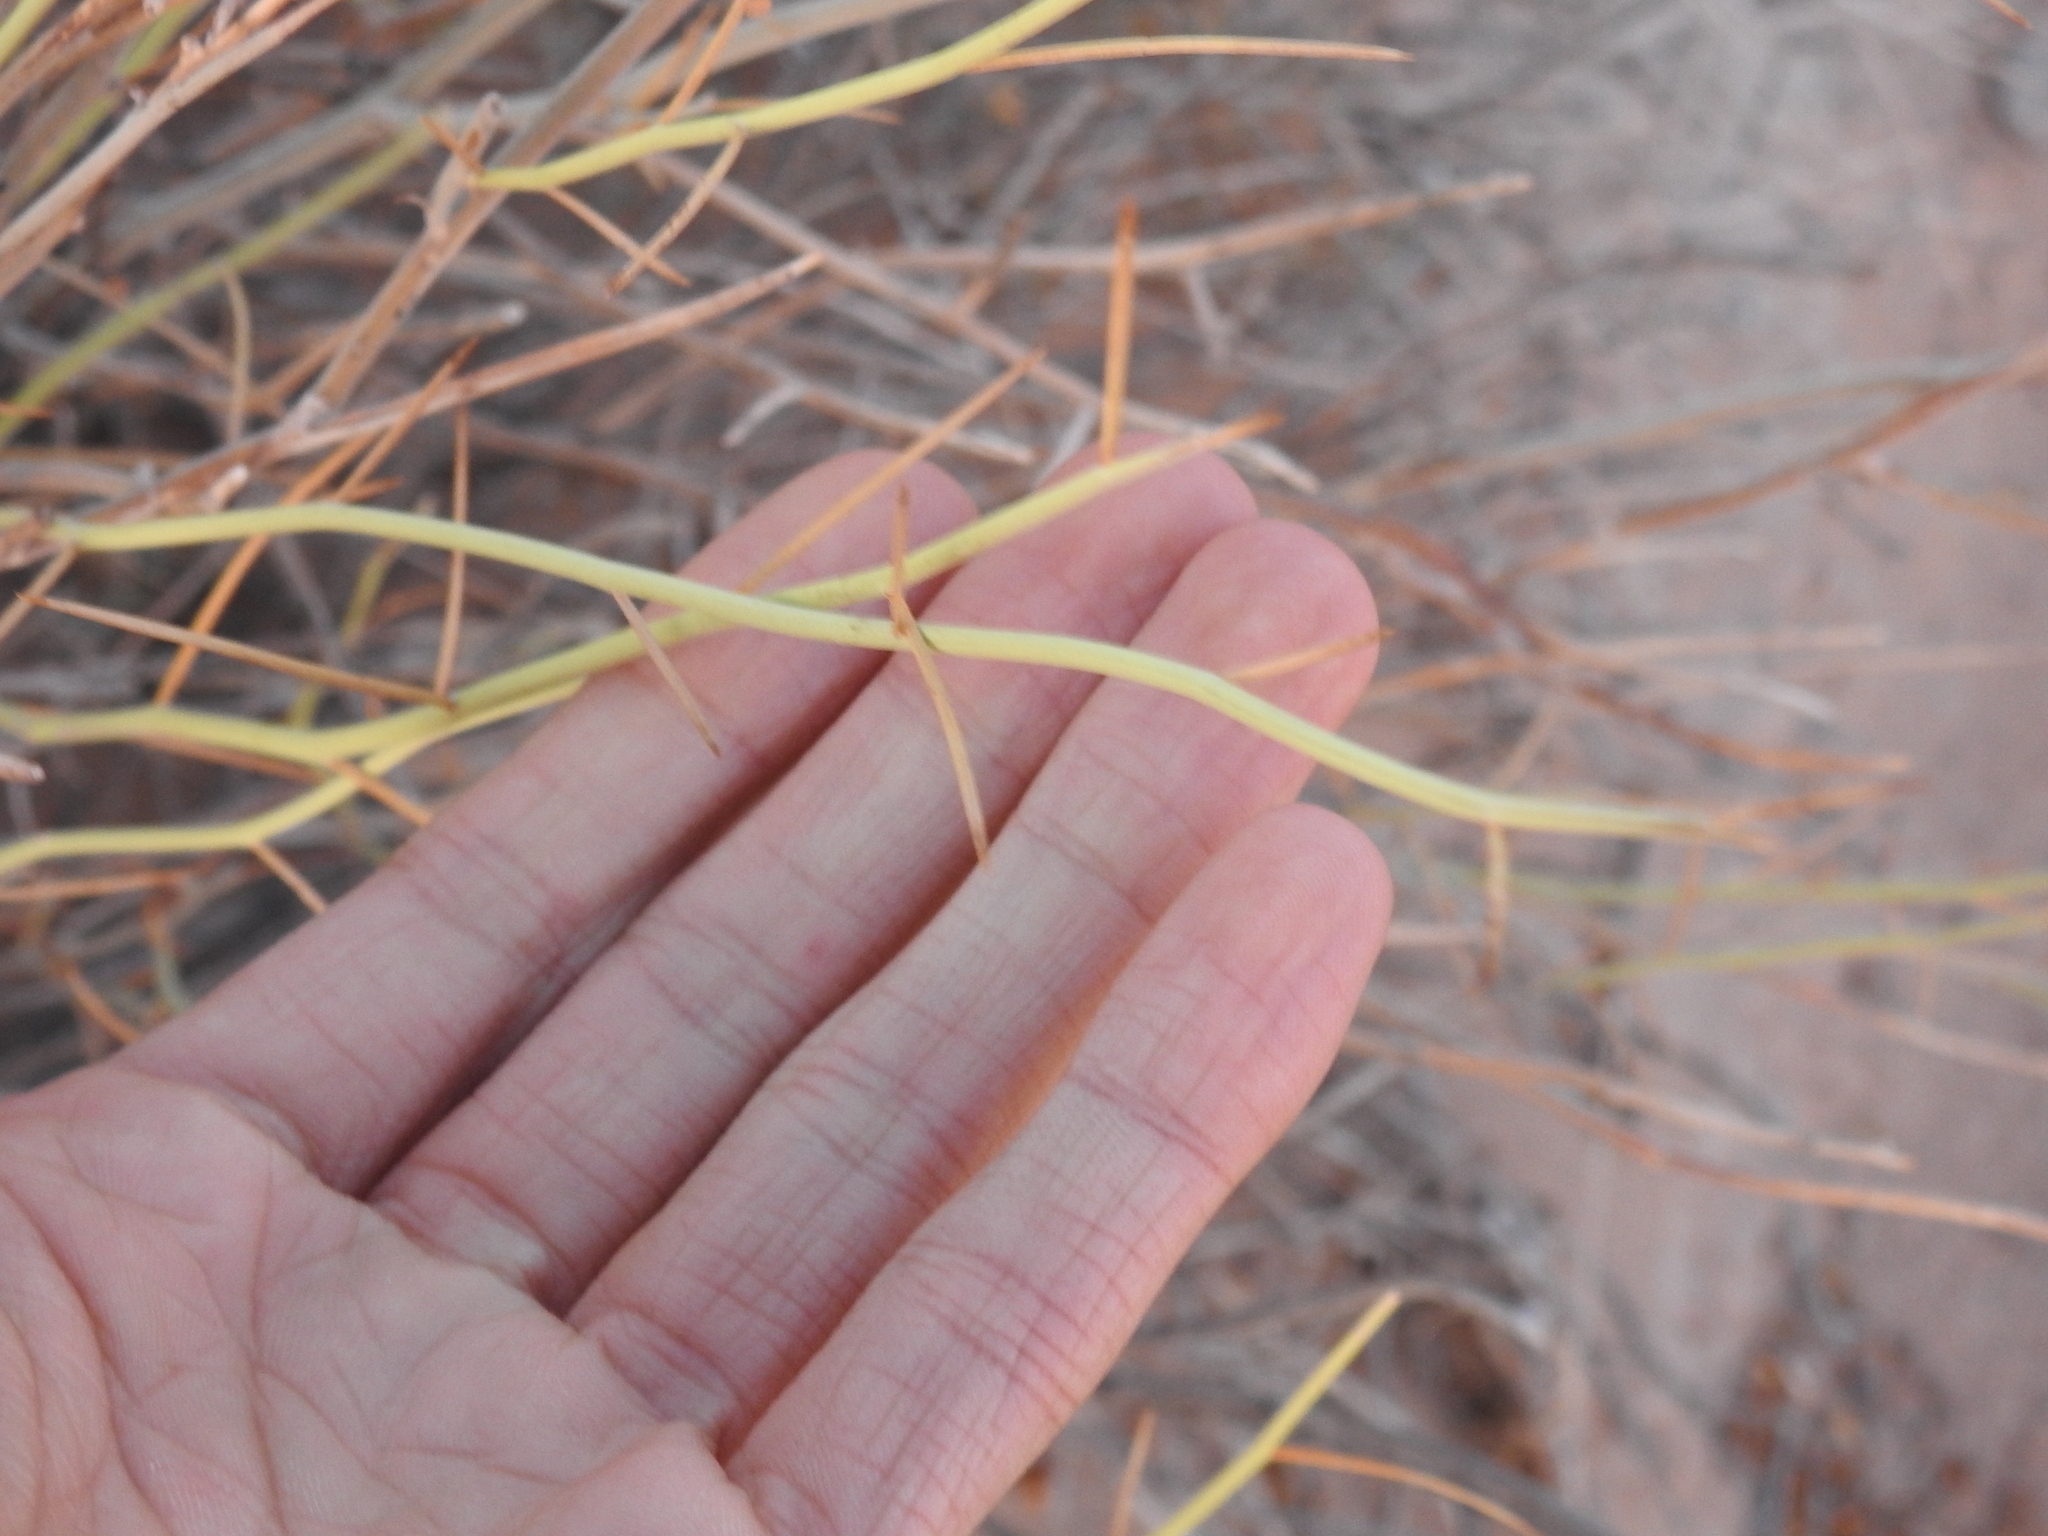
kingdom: Plantae
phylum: Tracheophyta
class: Magnoliopsida
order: Fabales
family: Fabaceae
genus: Senna
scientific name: Senna armata
